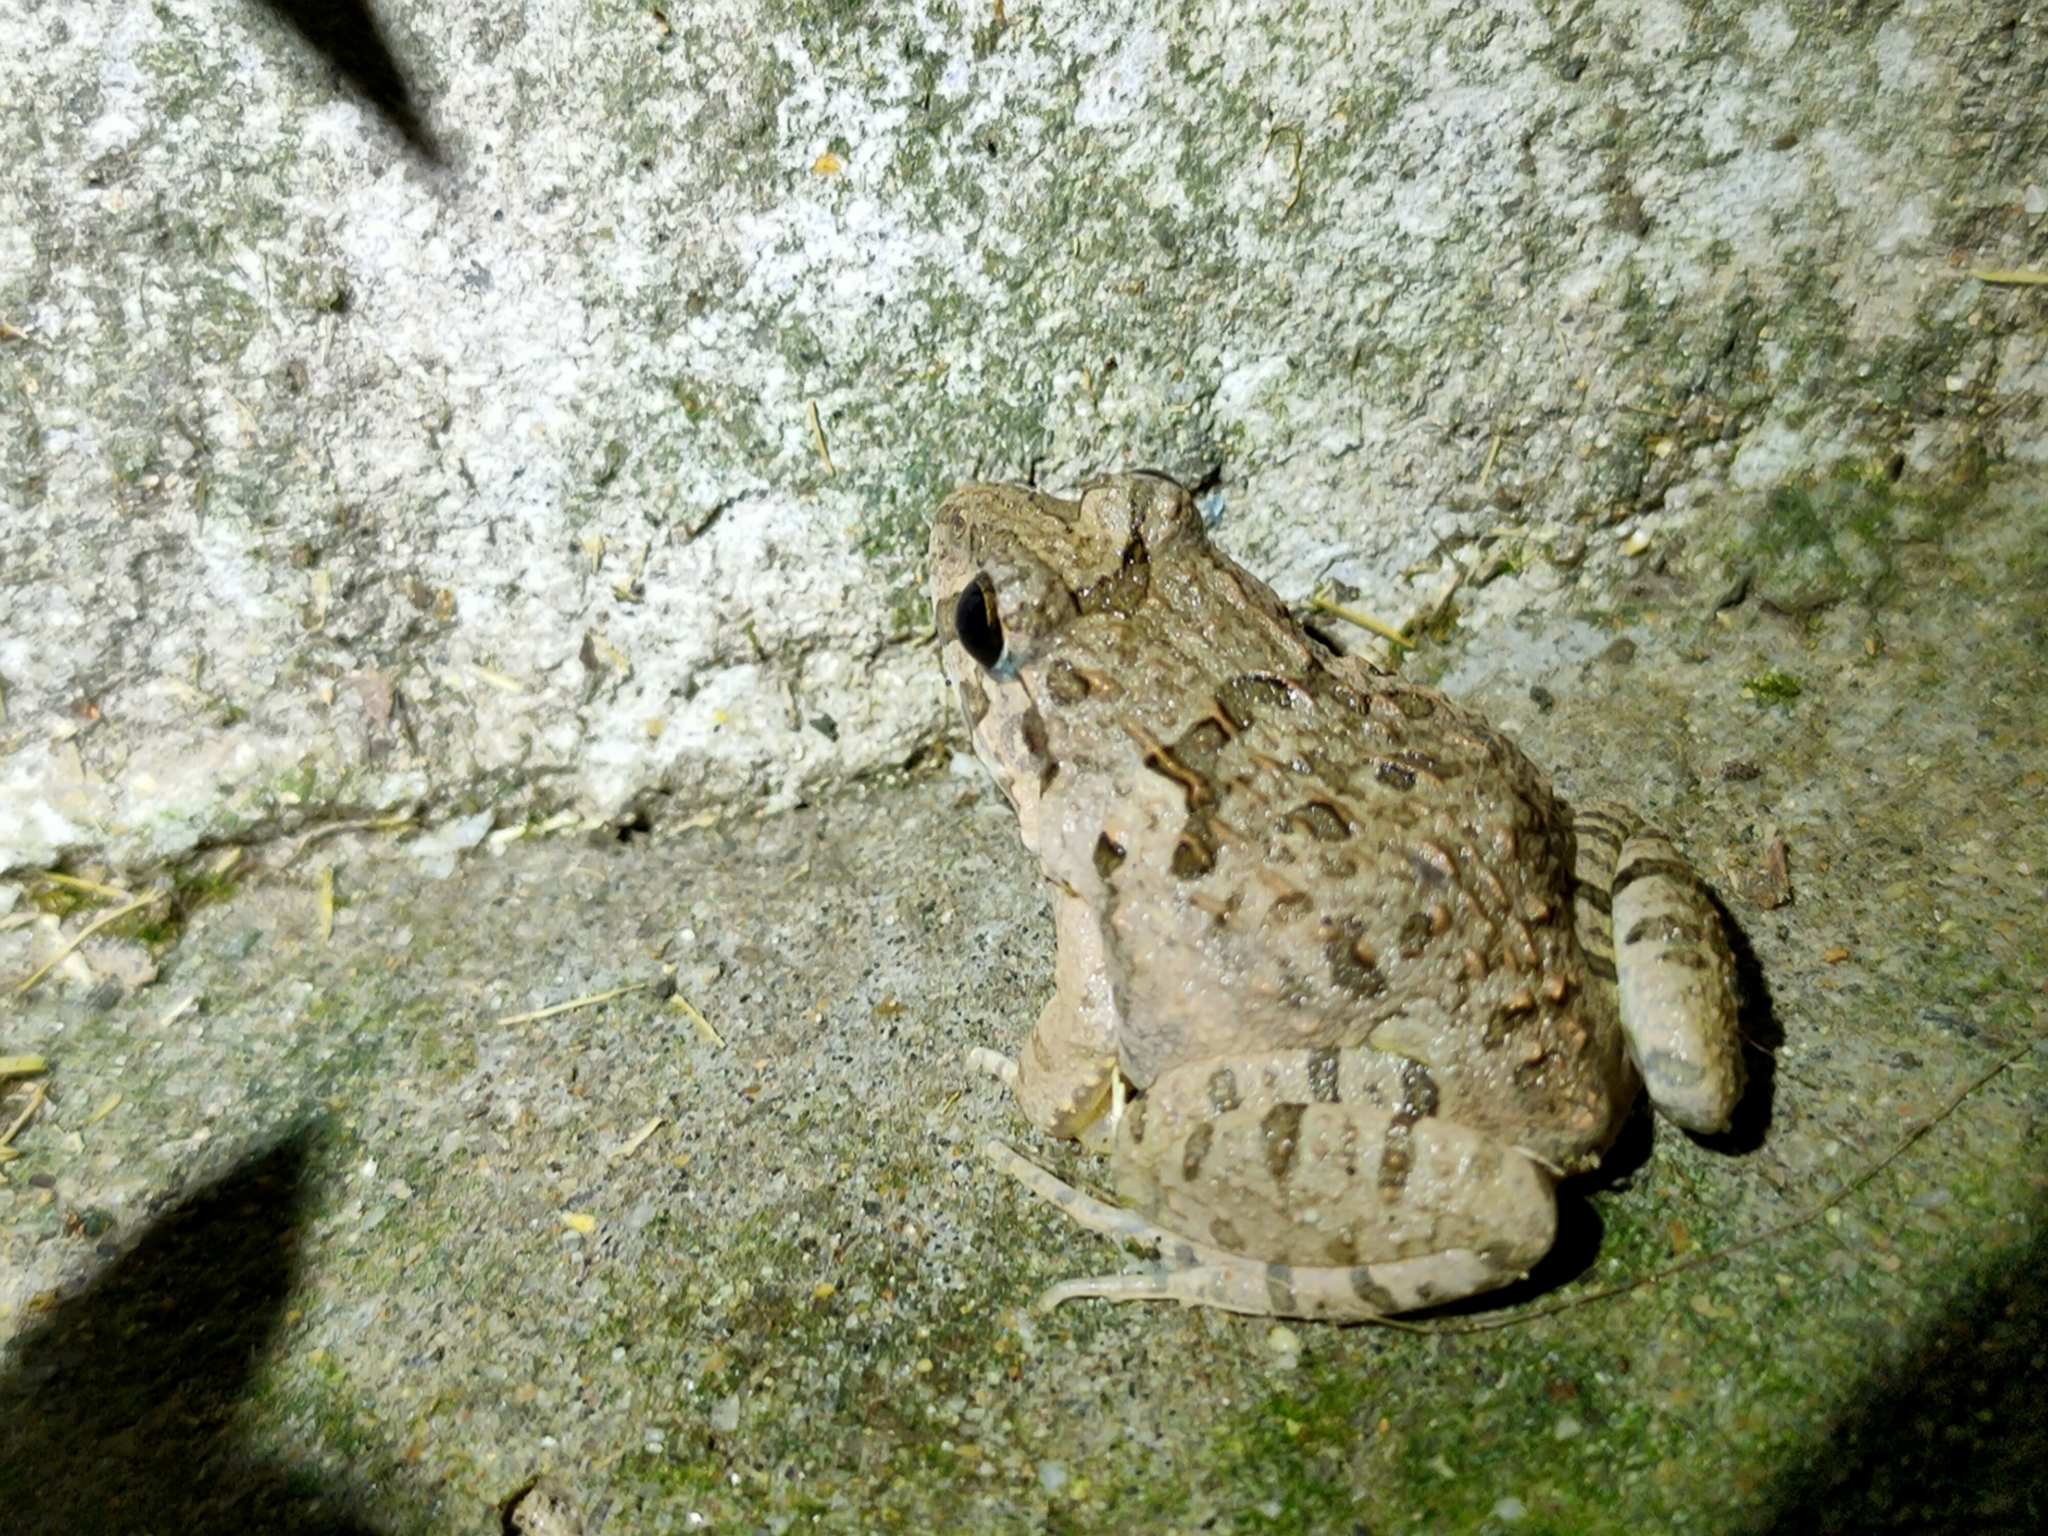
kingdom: Animalia
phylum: Chordata
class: Amphibia
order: Anura
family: Dicroglossidae
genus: Fejervarya
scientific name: Fejervarya multistriata
